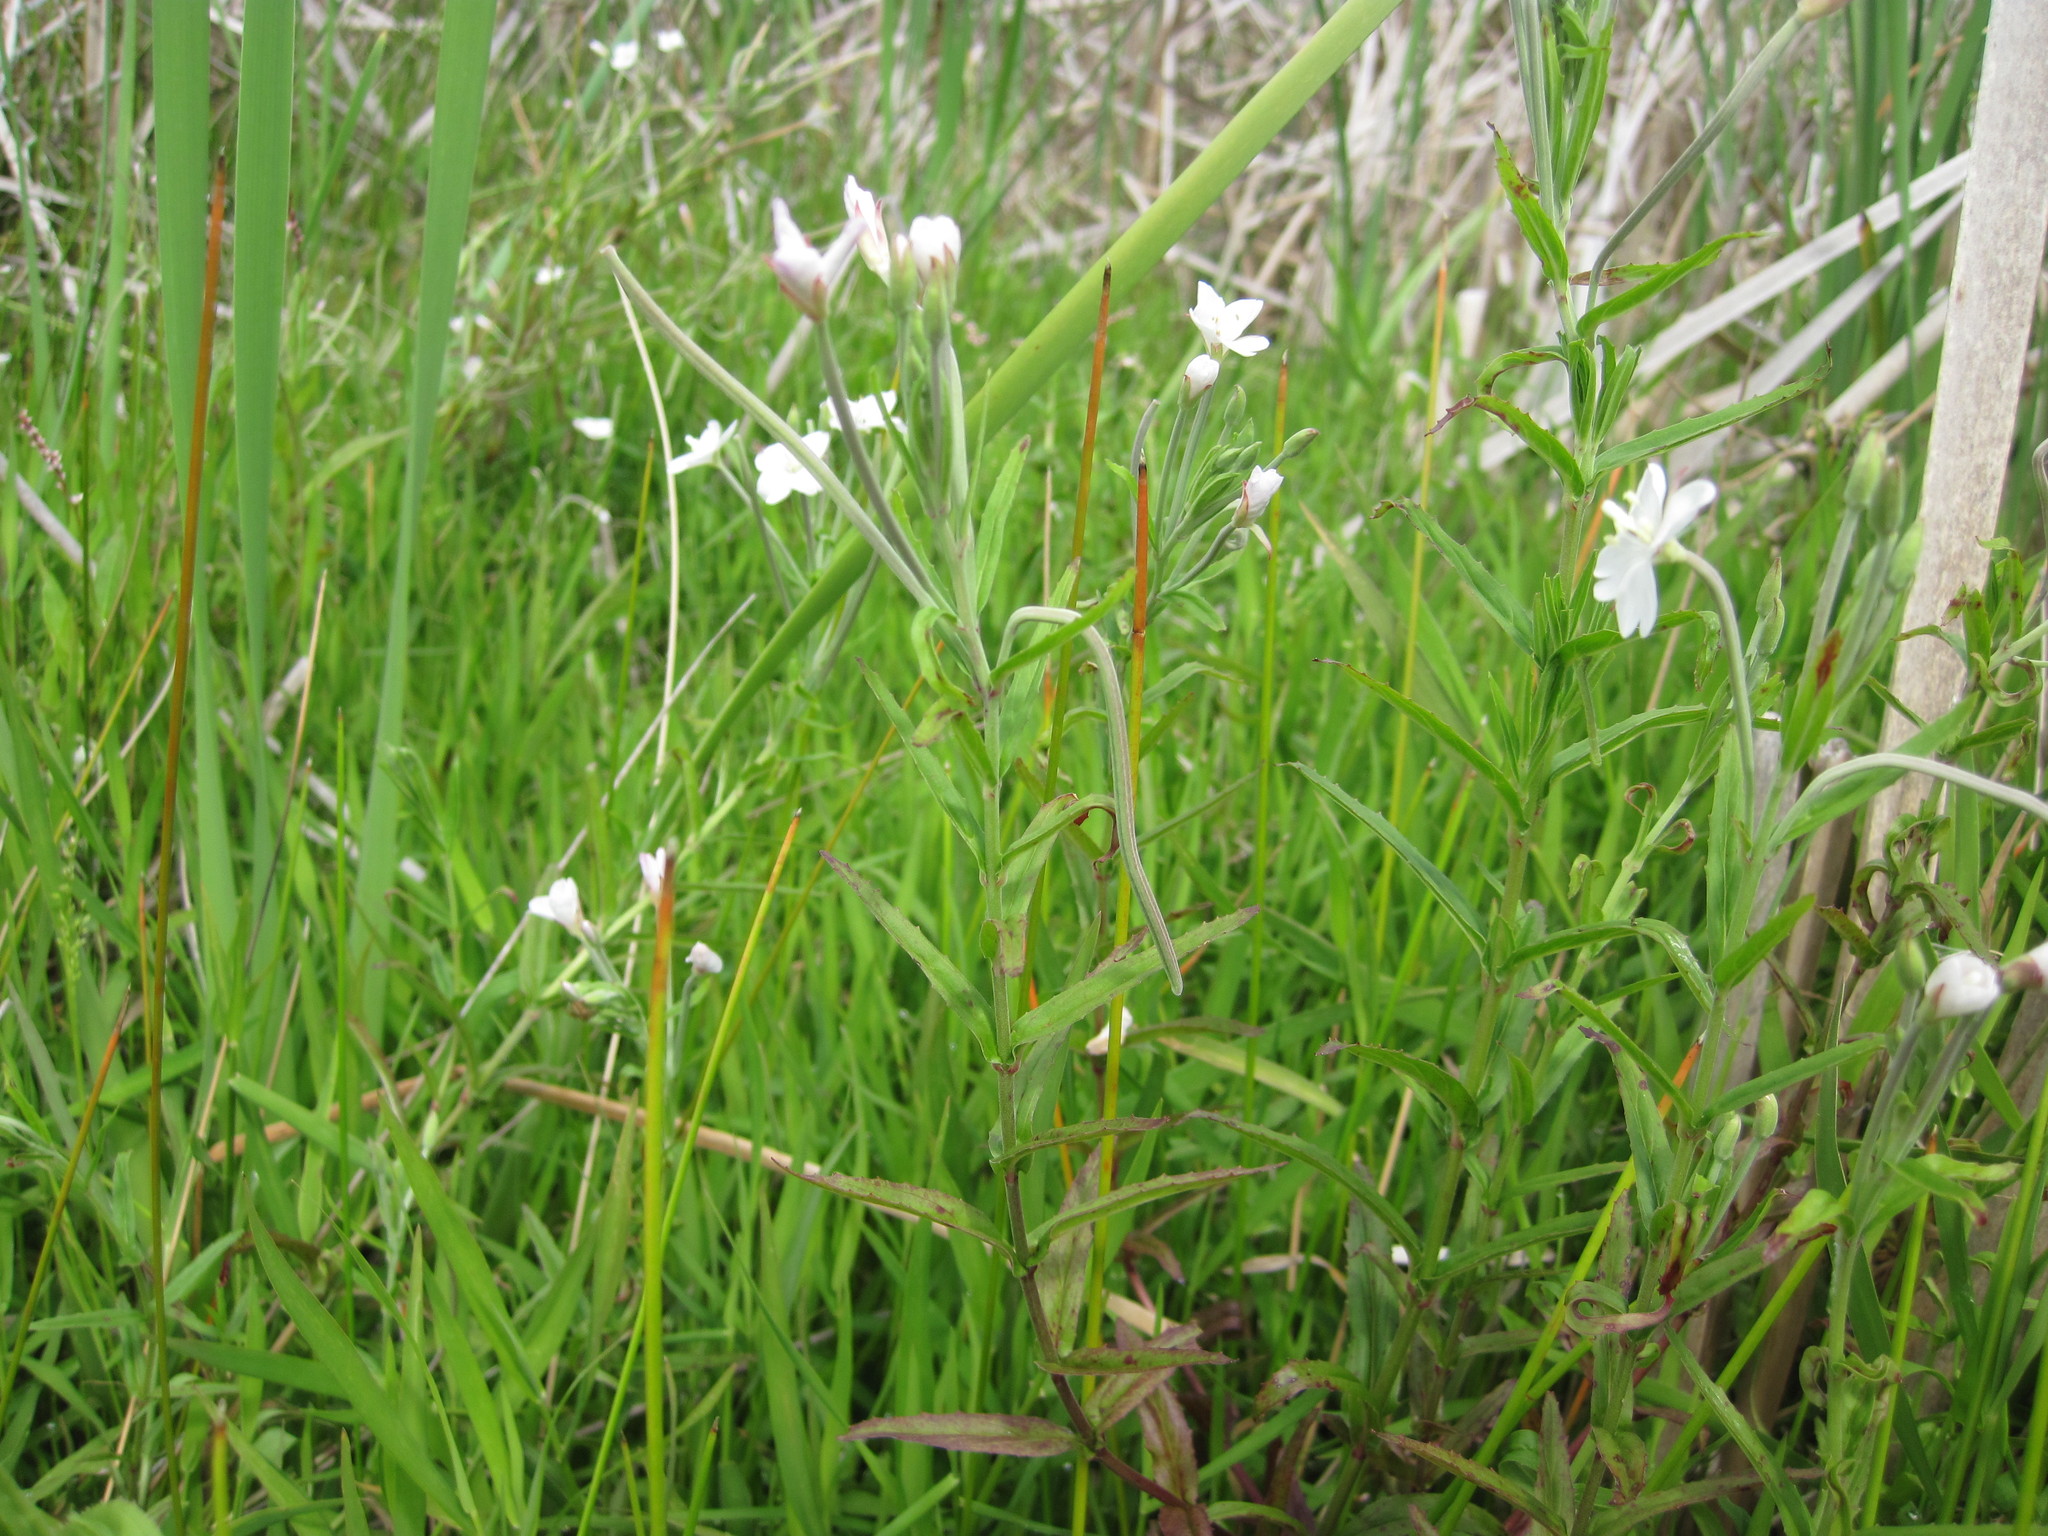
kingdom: Plantae
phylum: Tracheophyta
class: Magnoliopsida
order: Myrtales
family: Onagraceae
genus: Epilobium
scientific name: Epilobium pallidiflorum
